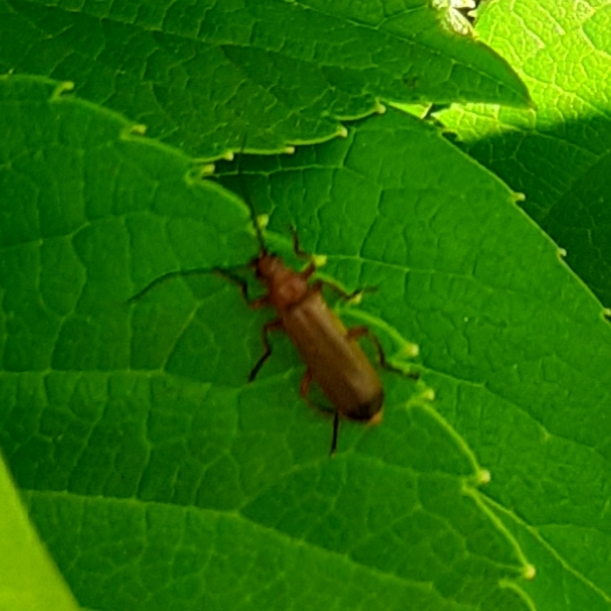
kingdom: Animalia
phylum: Arthropoda
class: Insecta
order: Coleoptera
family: Cantharidae
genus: Rhagonycha
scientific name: Rhagonycha fulva
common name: Common red soldier beetle
